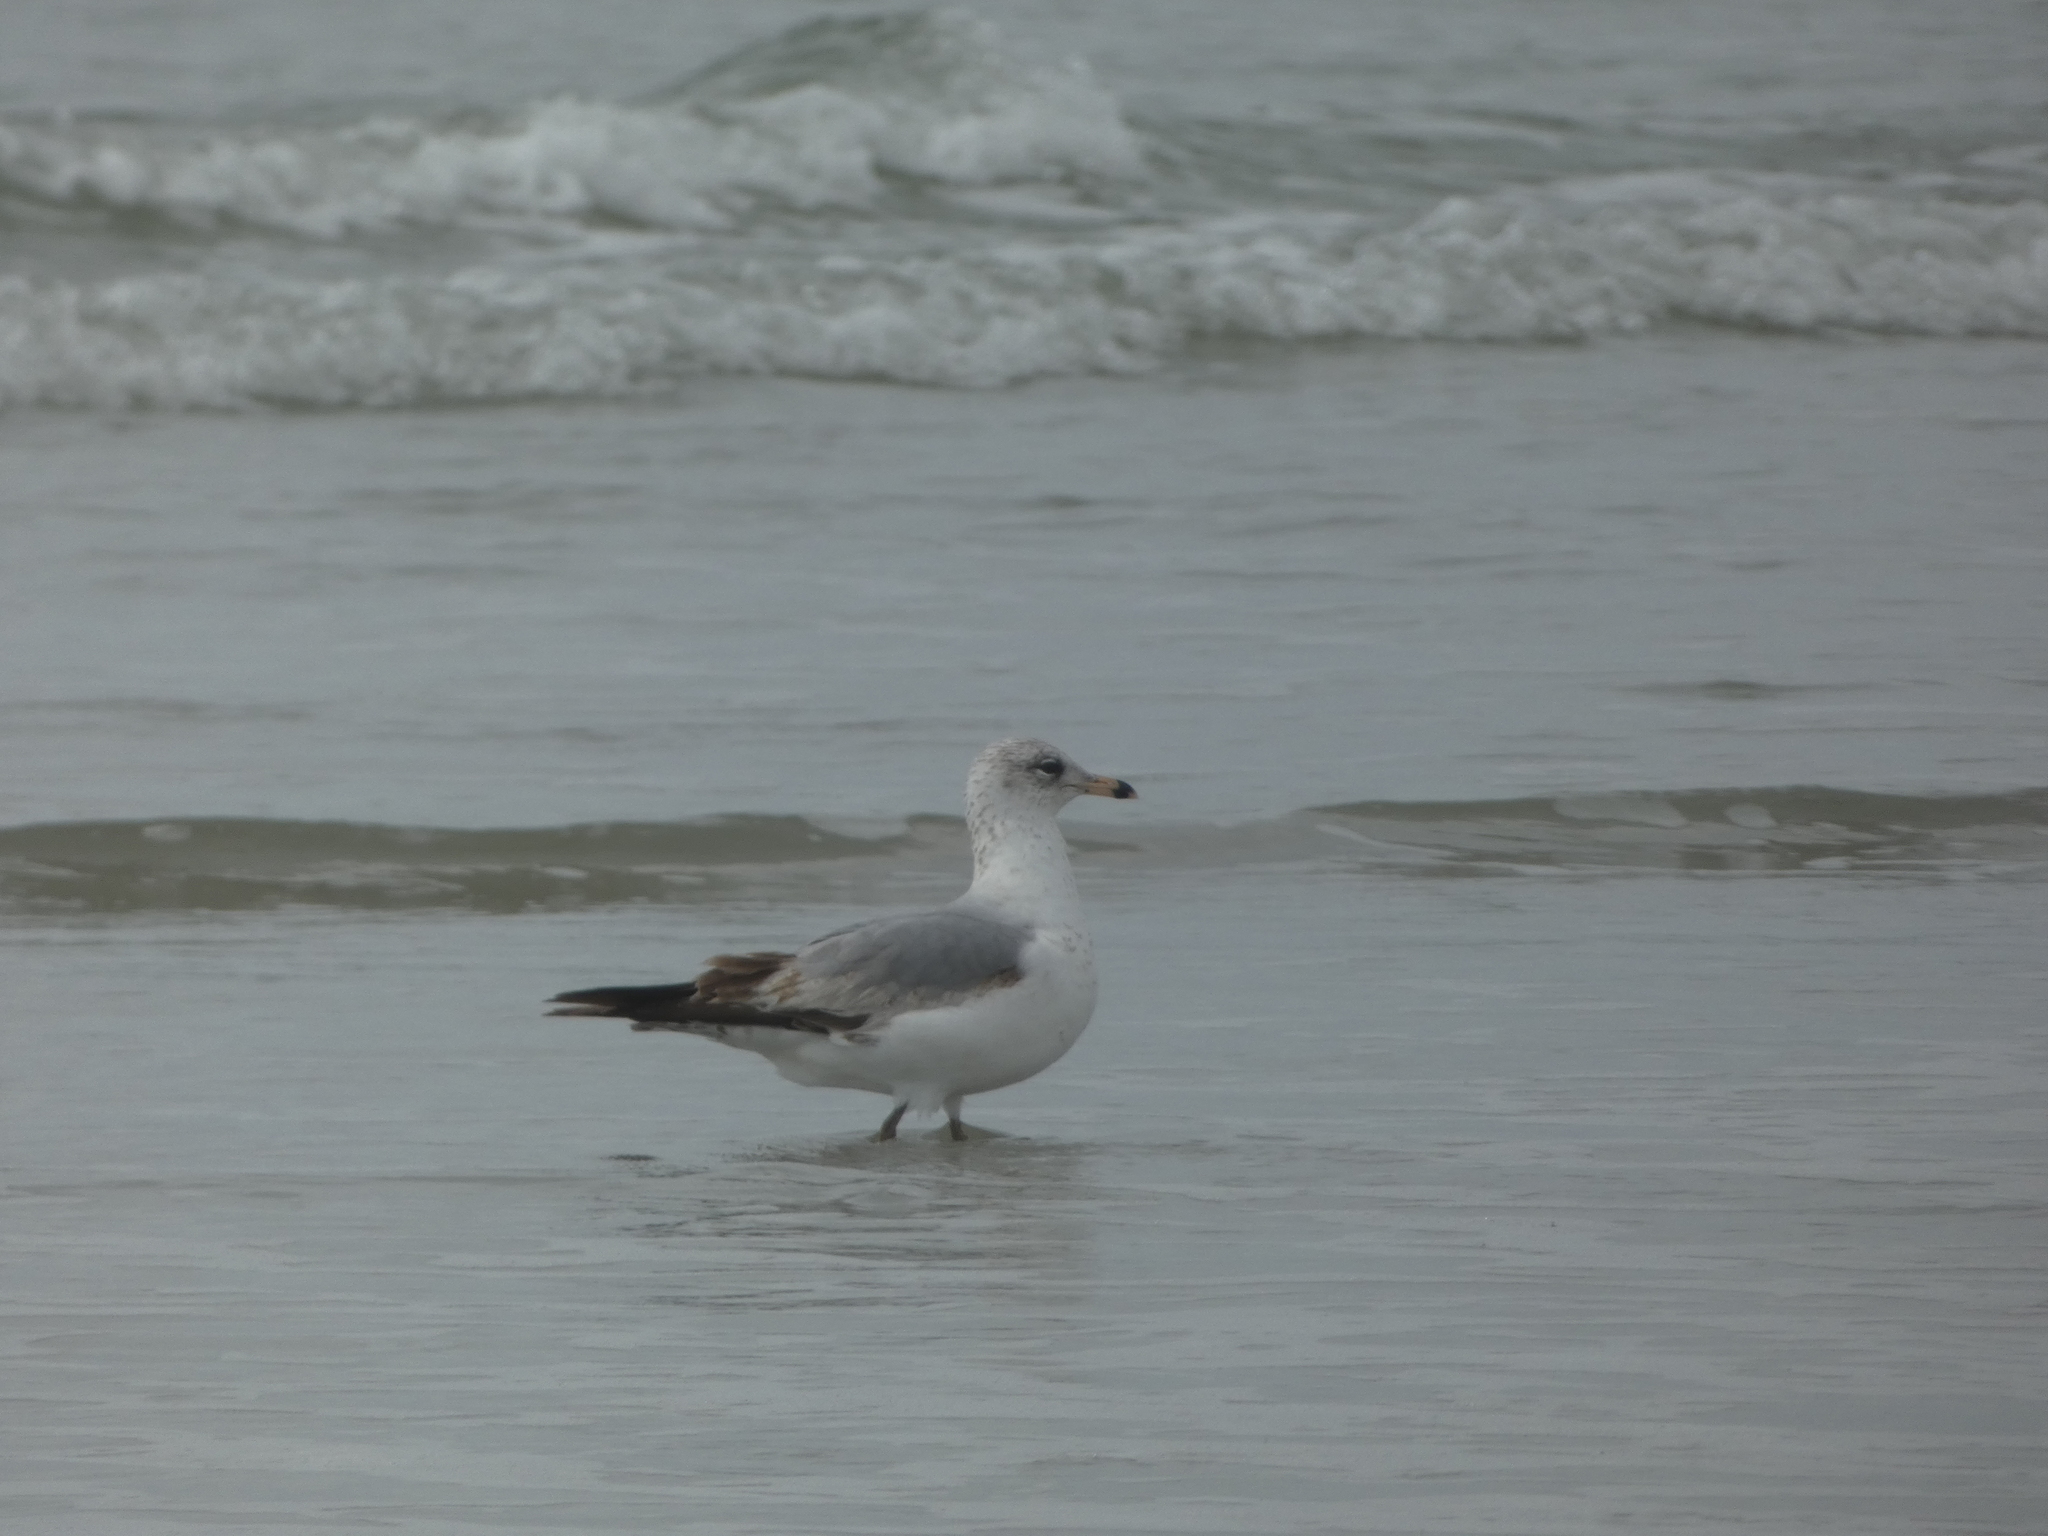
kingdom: Animalia
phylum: Chordata
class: Aves
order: Charadriiformes
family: Laridae
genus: Larus
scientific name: Larus delawarensis
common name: Ring-billed gull
